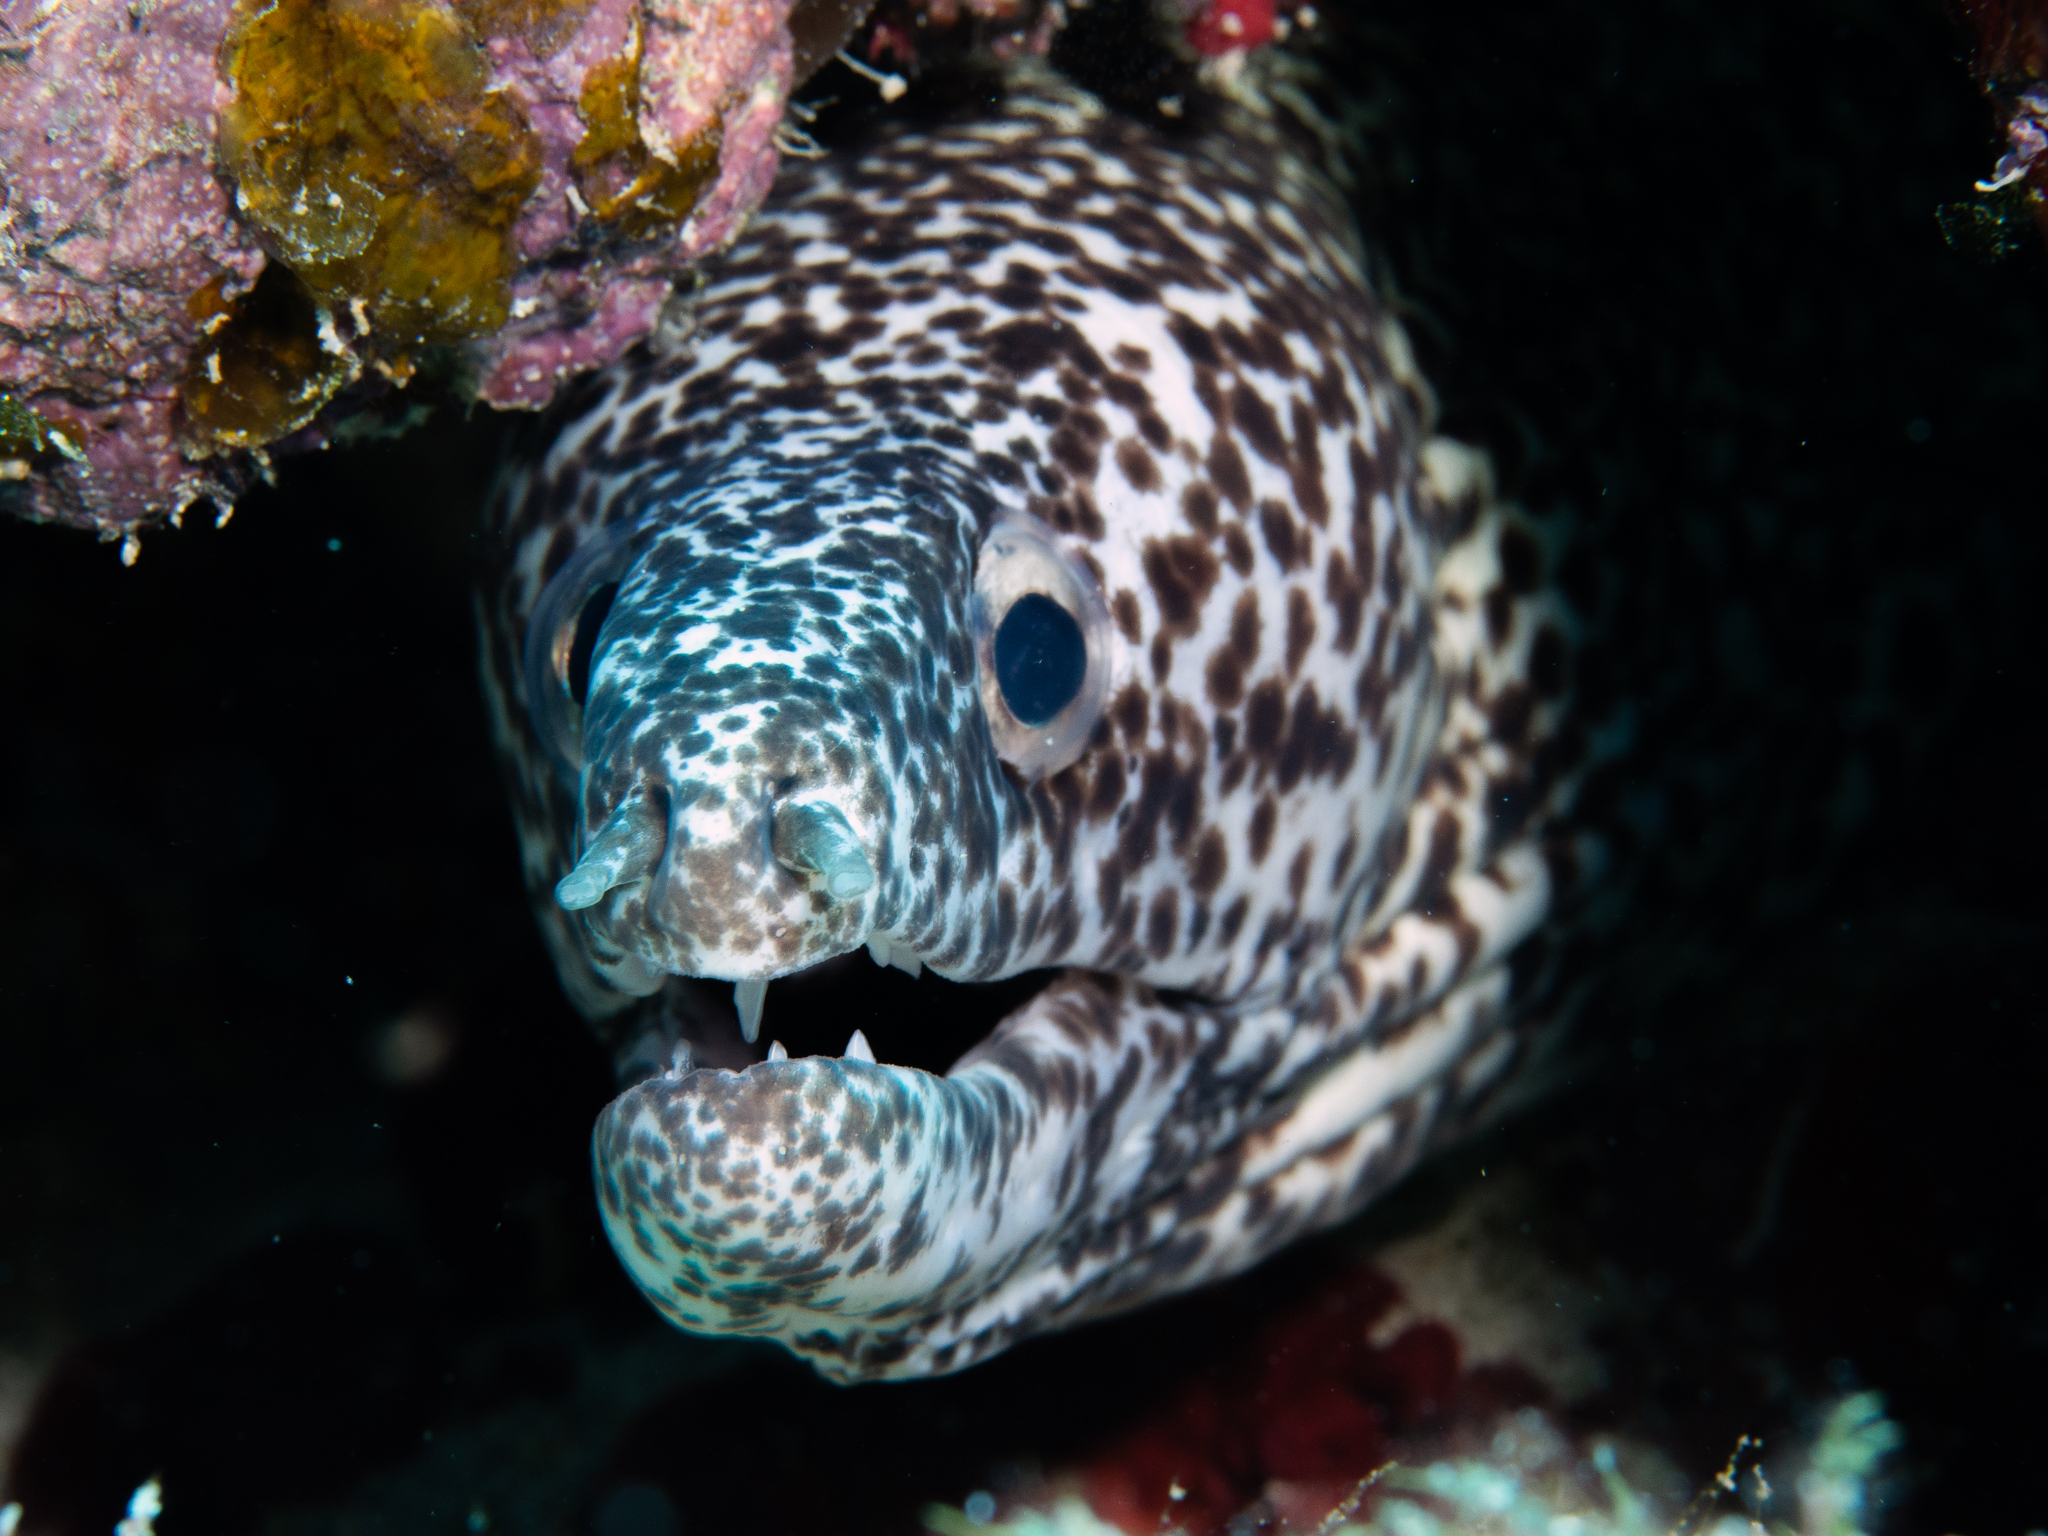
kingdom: Animalia
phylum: Chordata
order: Anguilliformes
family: Muraenidae
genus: Gymnothorax
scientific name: Gymnothorax moringa
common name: Spotted moray
